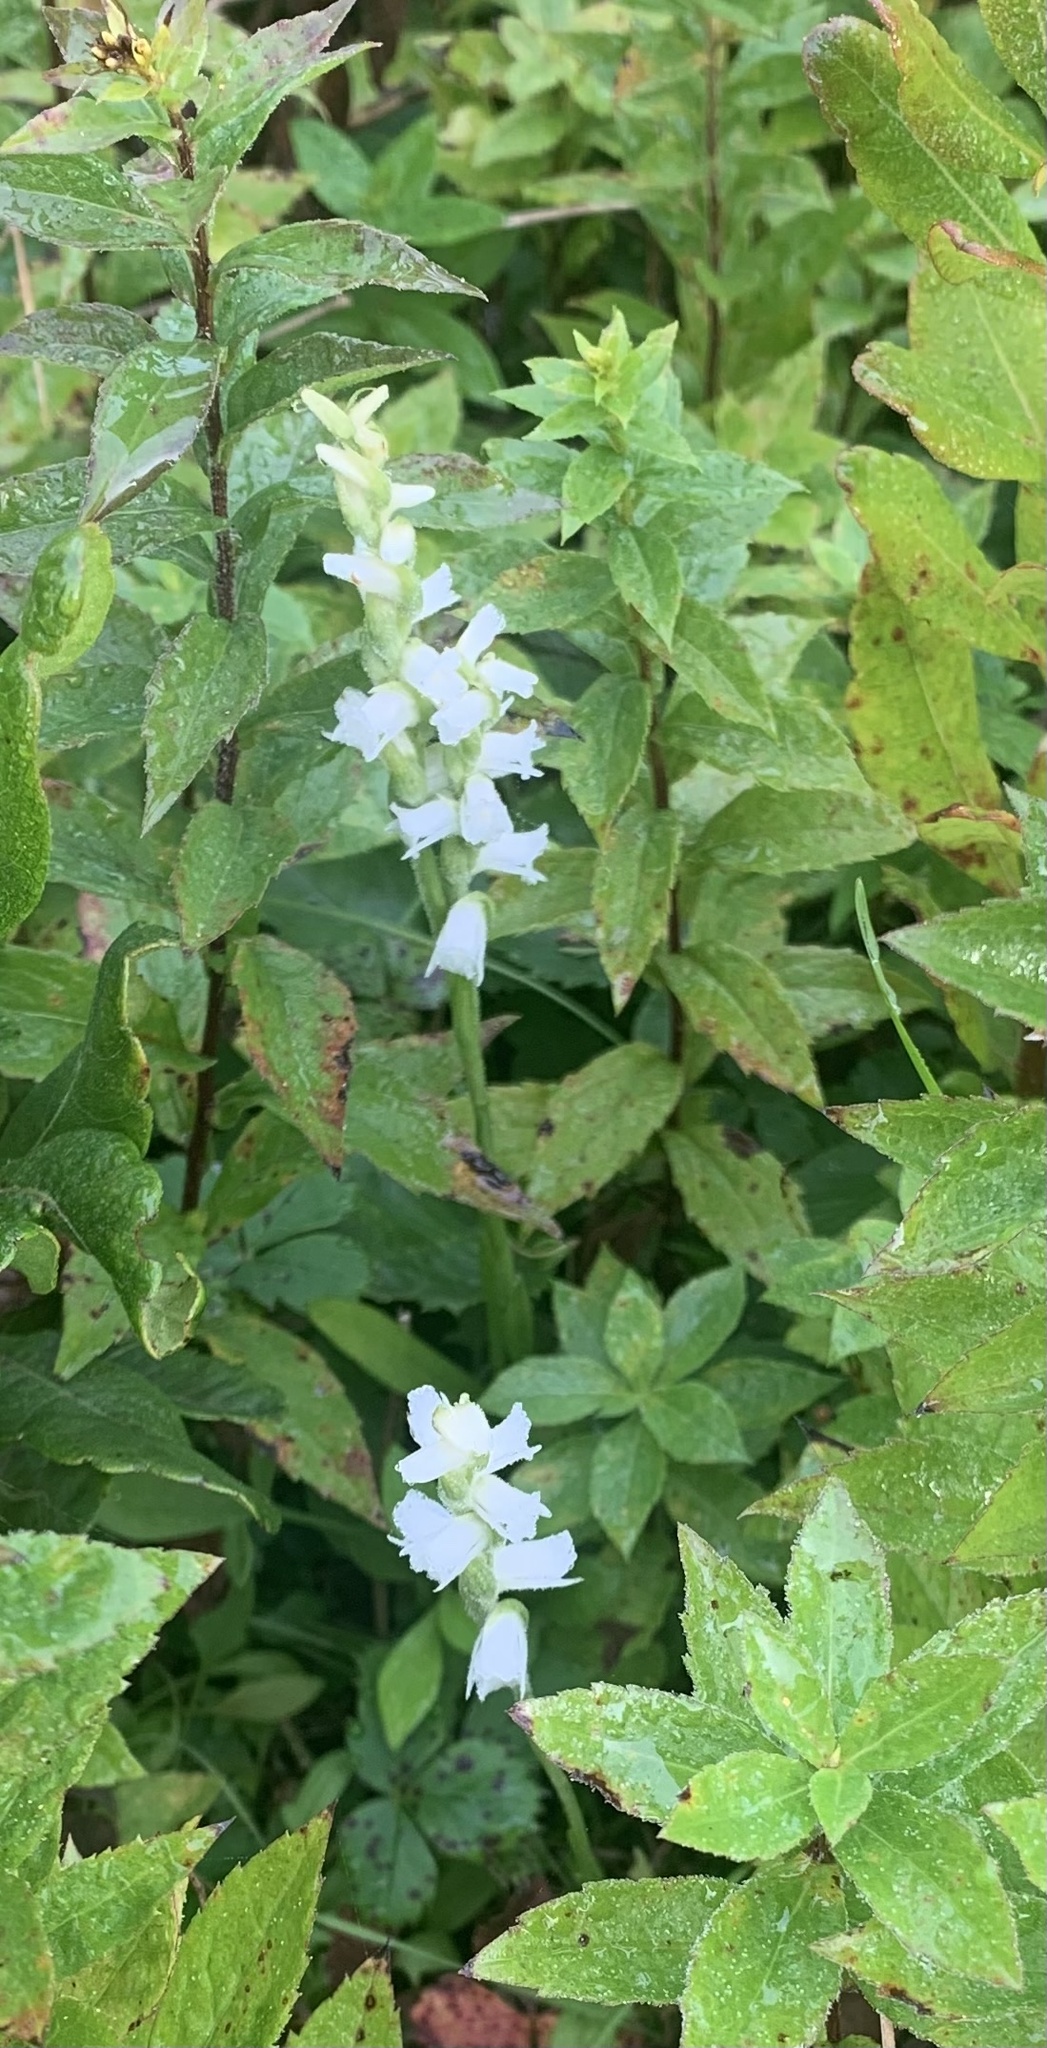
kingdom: Plantae
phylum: Tracheophyta
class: Liliopsida
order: Asparagales
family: Orchidaceae
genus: Spiranthes
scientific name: Spiranthes arcisepala
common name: Appalachian ladies'-tresses
